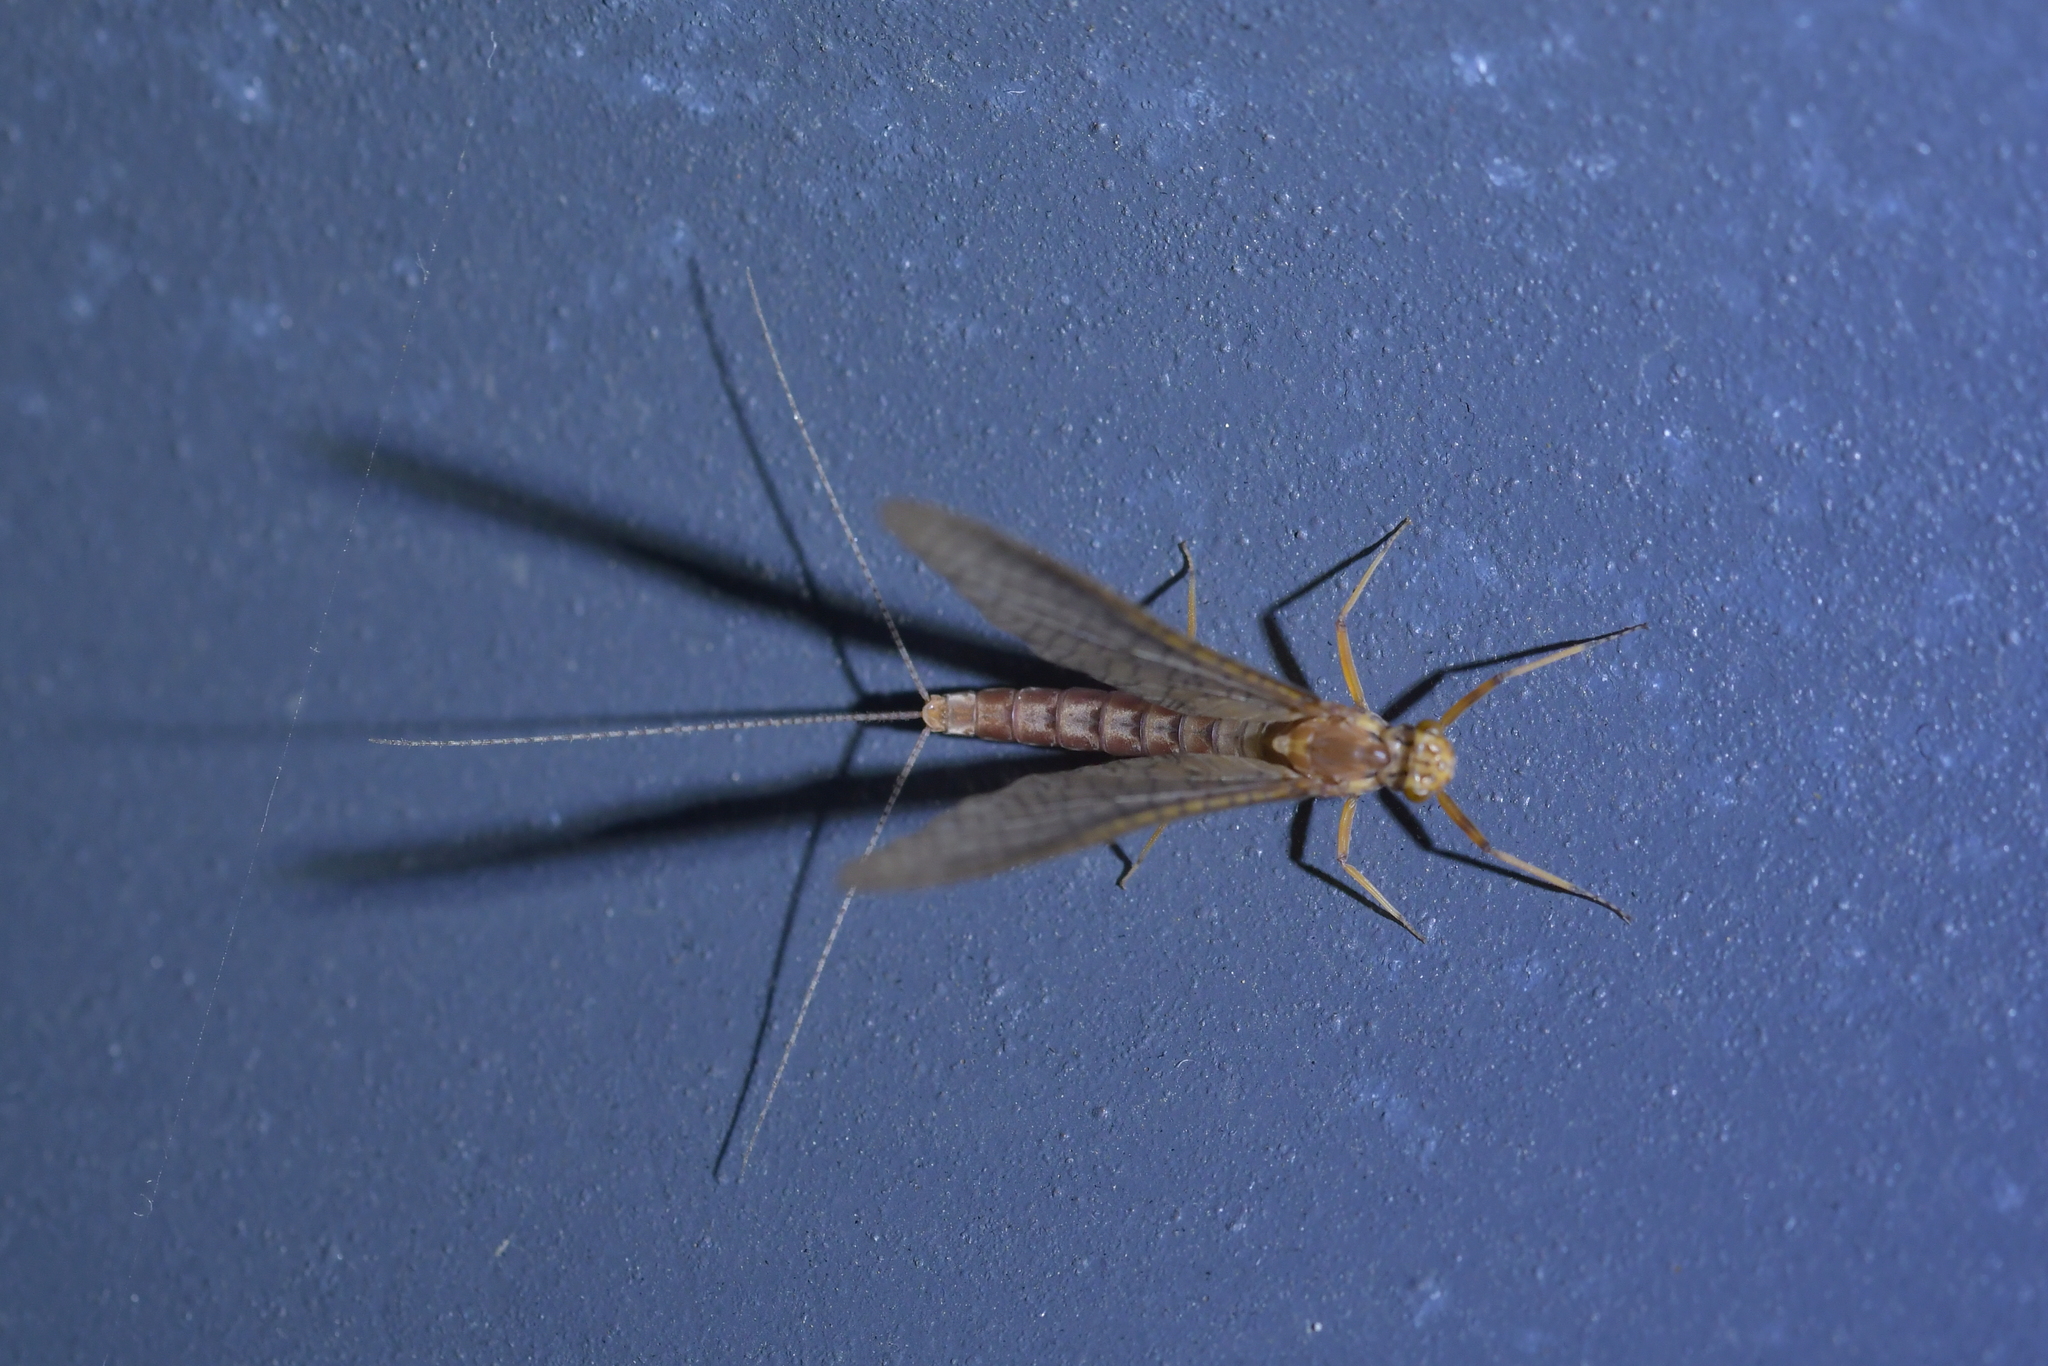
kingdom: Animalia
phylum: Arthropoda
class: Insecta
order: Ephemeroptera
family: Leptophlebiidae
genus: Acanthophlebia
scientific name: Acanthophlebia cruentata
